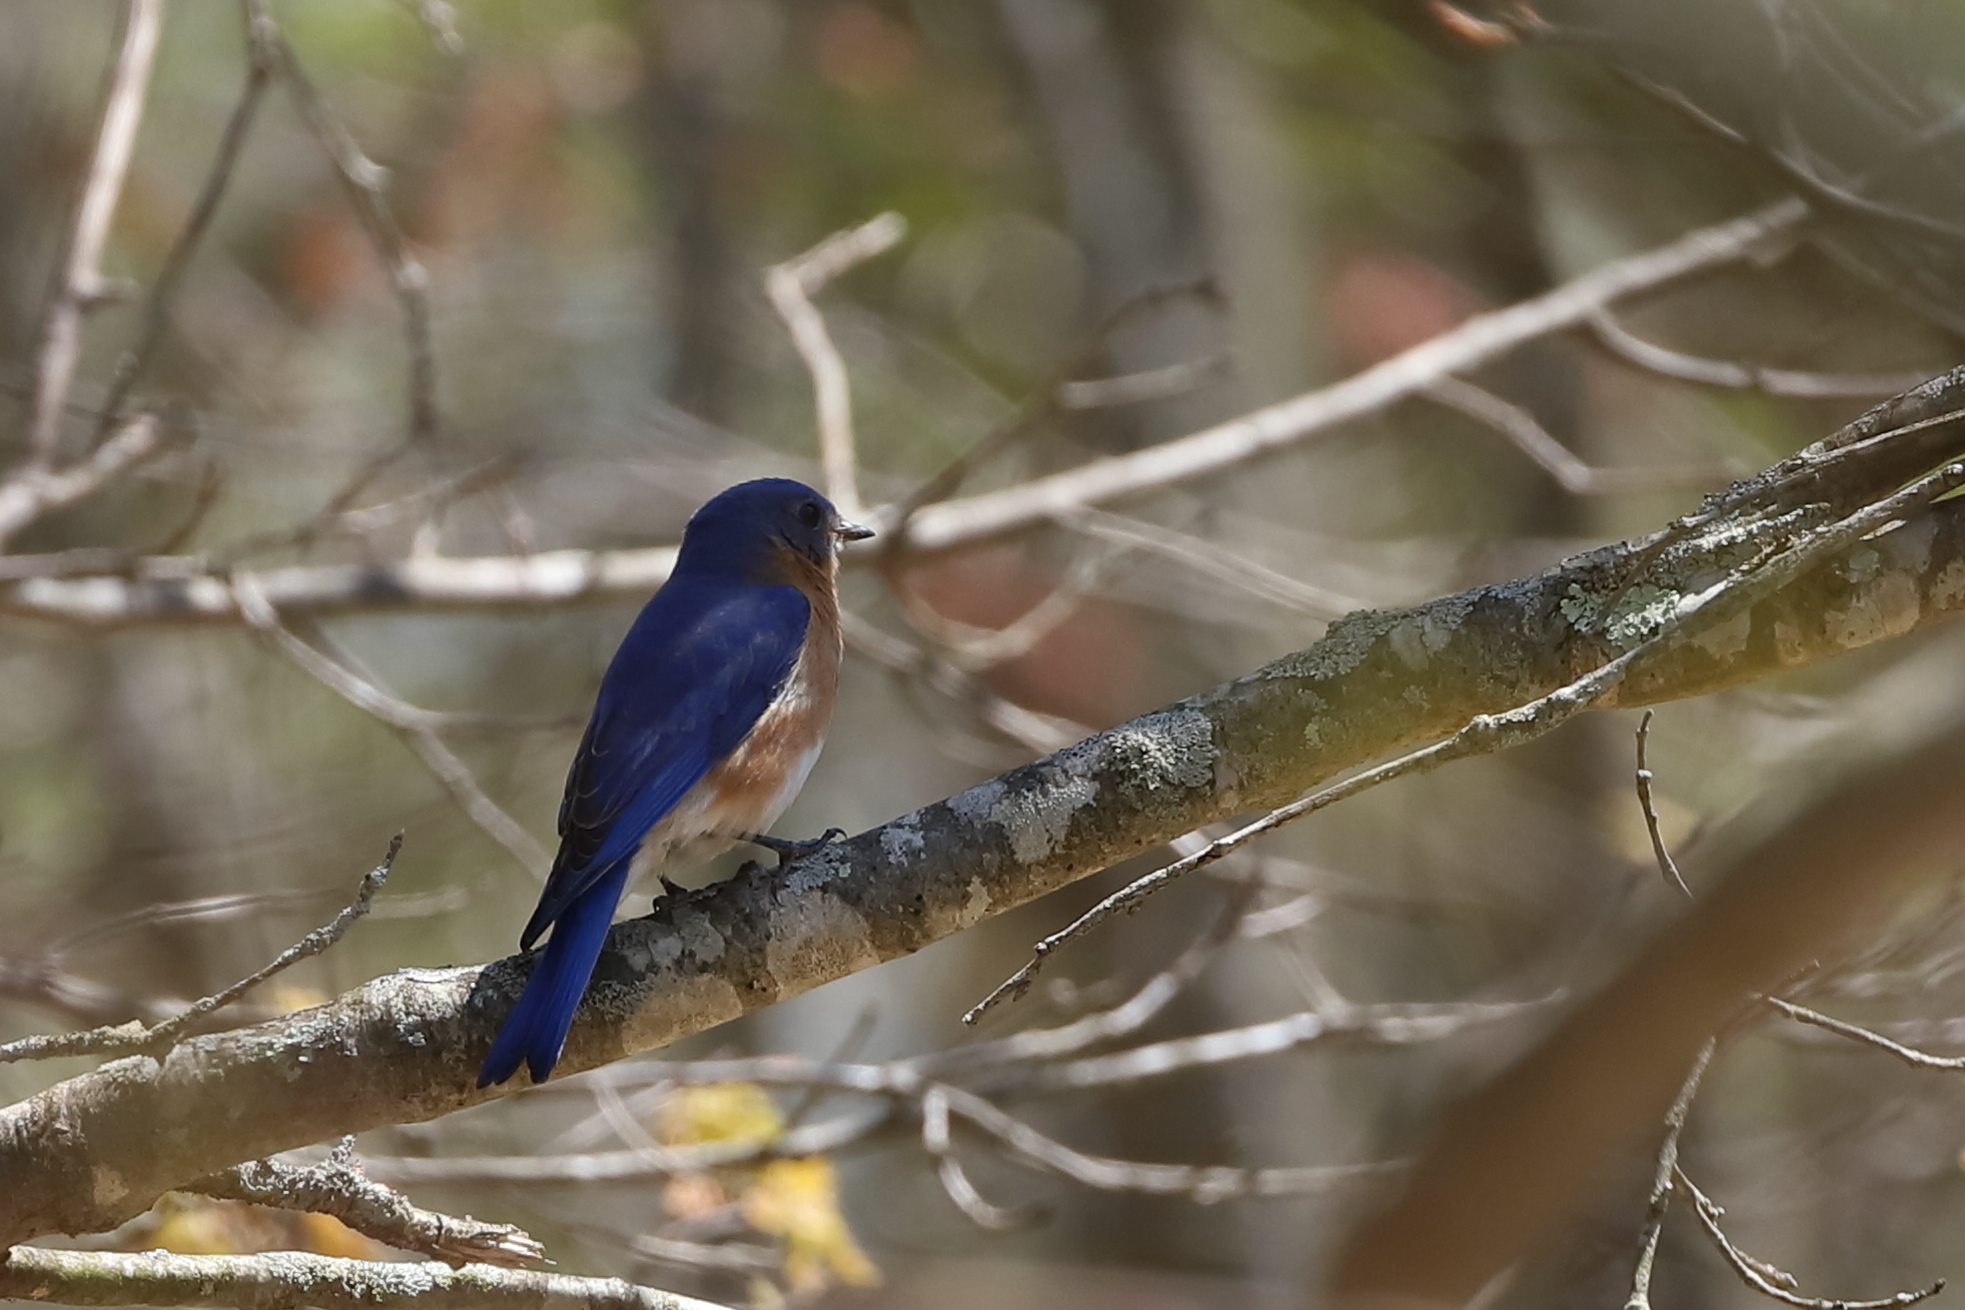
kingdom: Animalia
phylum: Chordata
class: Aves
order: Passeriformes
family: Turdidae
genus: Sialia
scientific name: Sialia sialis
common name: Eastern bluebird
